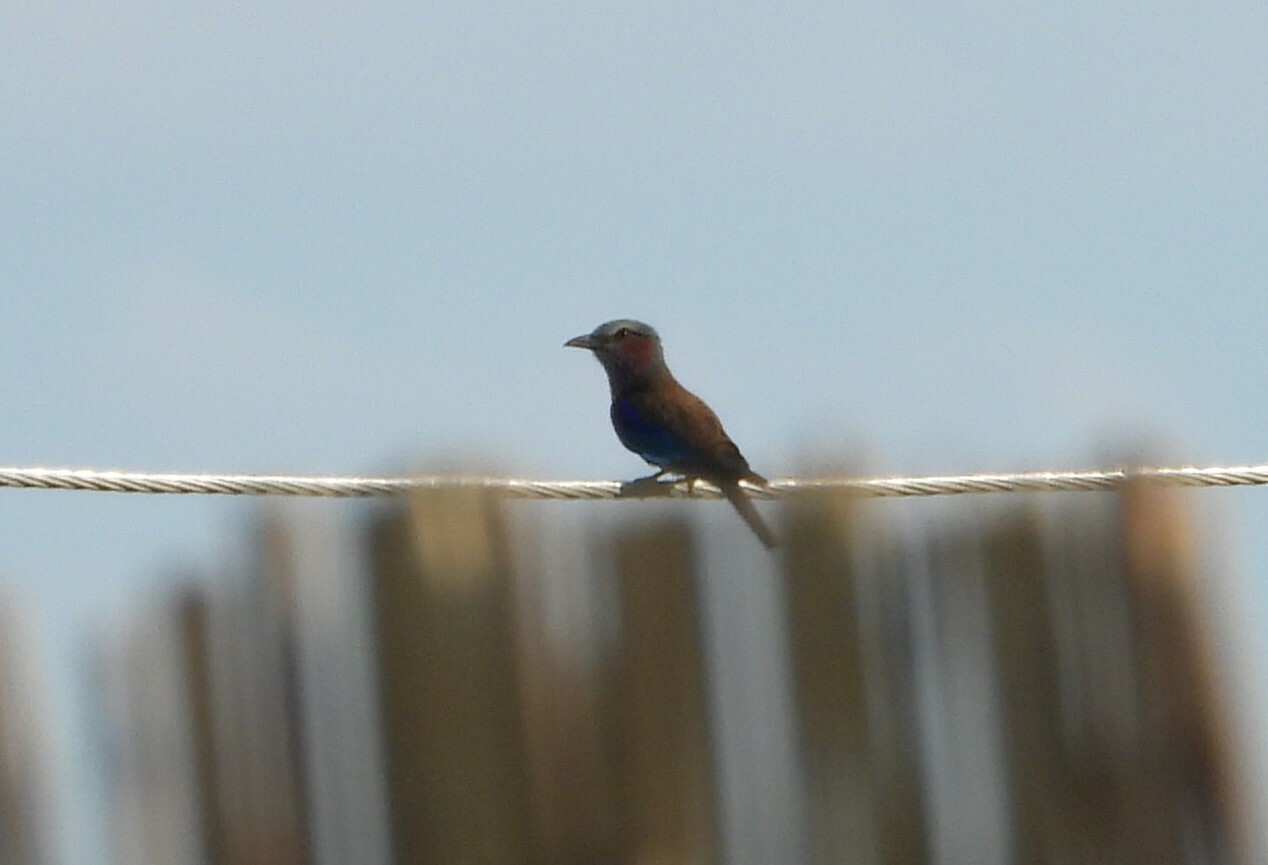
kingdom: Animalia
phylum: Chordata
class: Aves
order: Coraciiformes
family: Coraciidae
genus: Coracias
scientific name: Coracias caudatus
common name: Lilac-breasted roller
